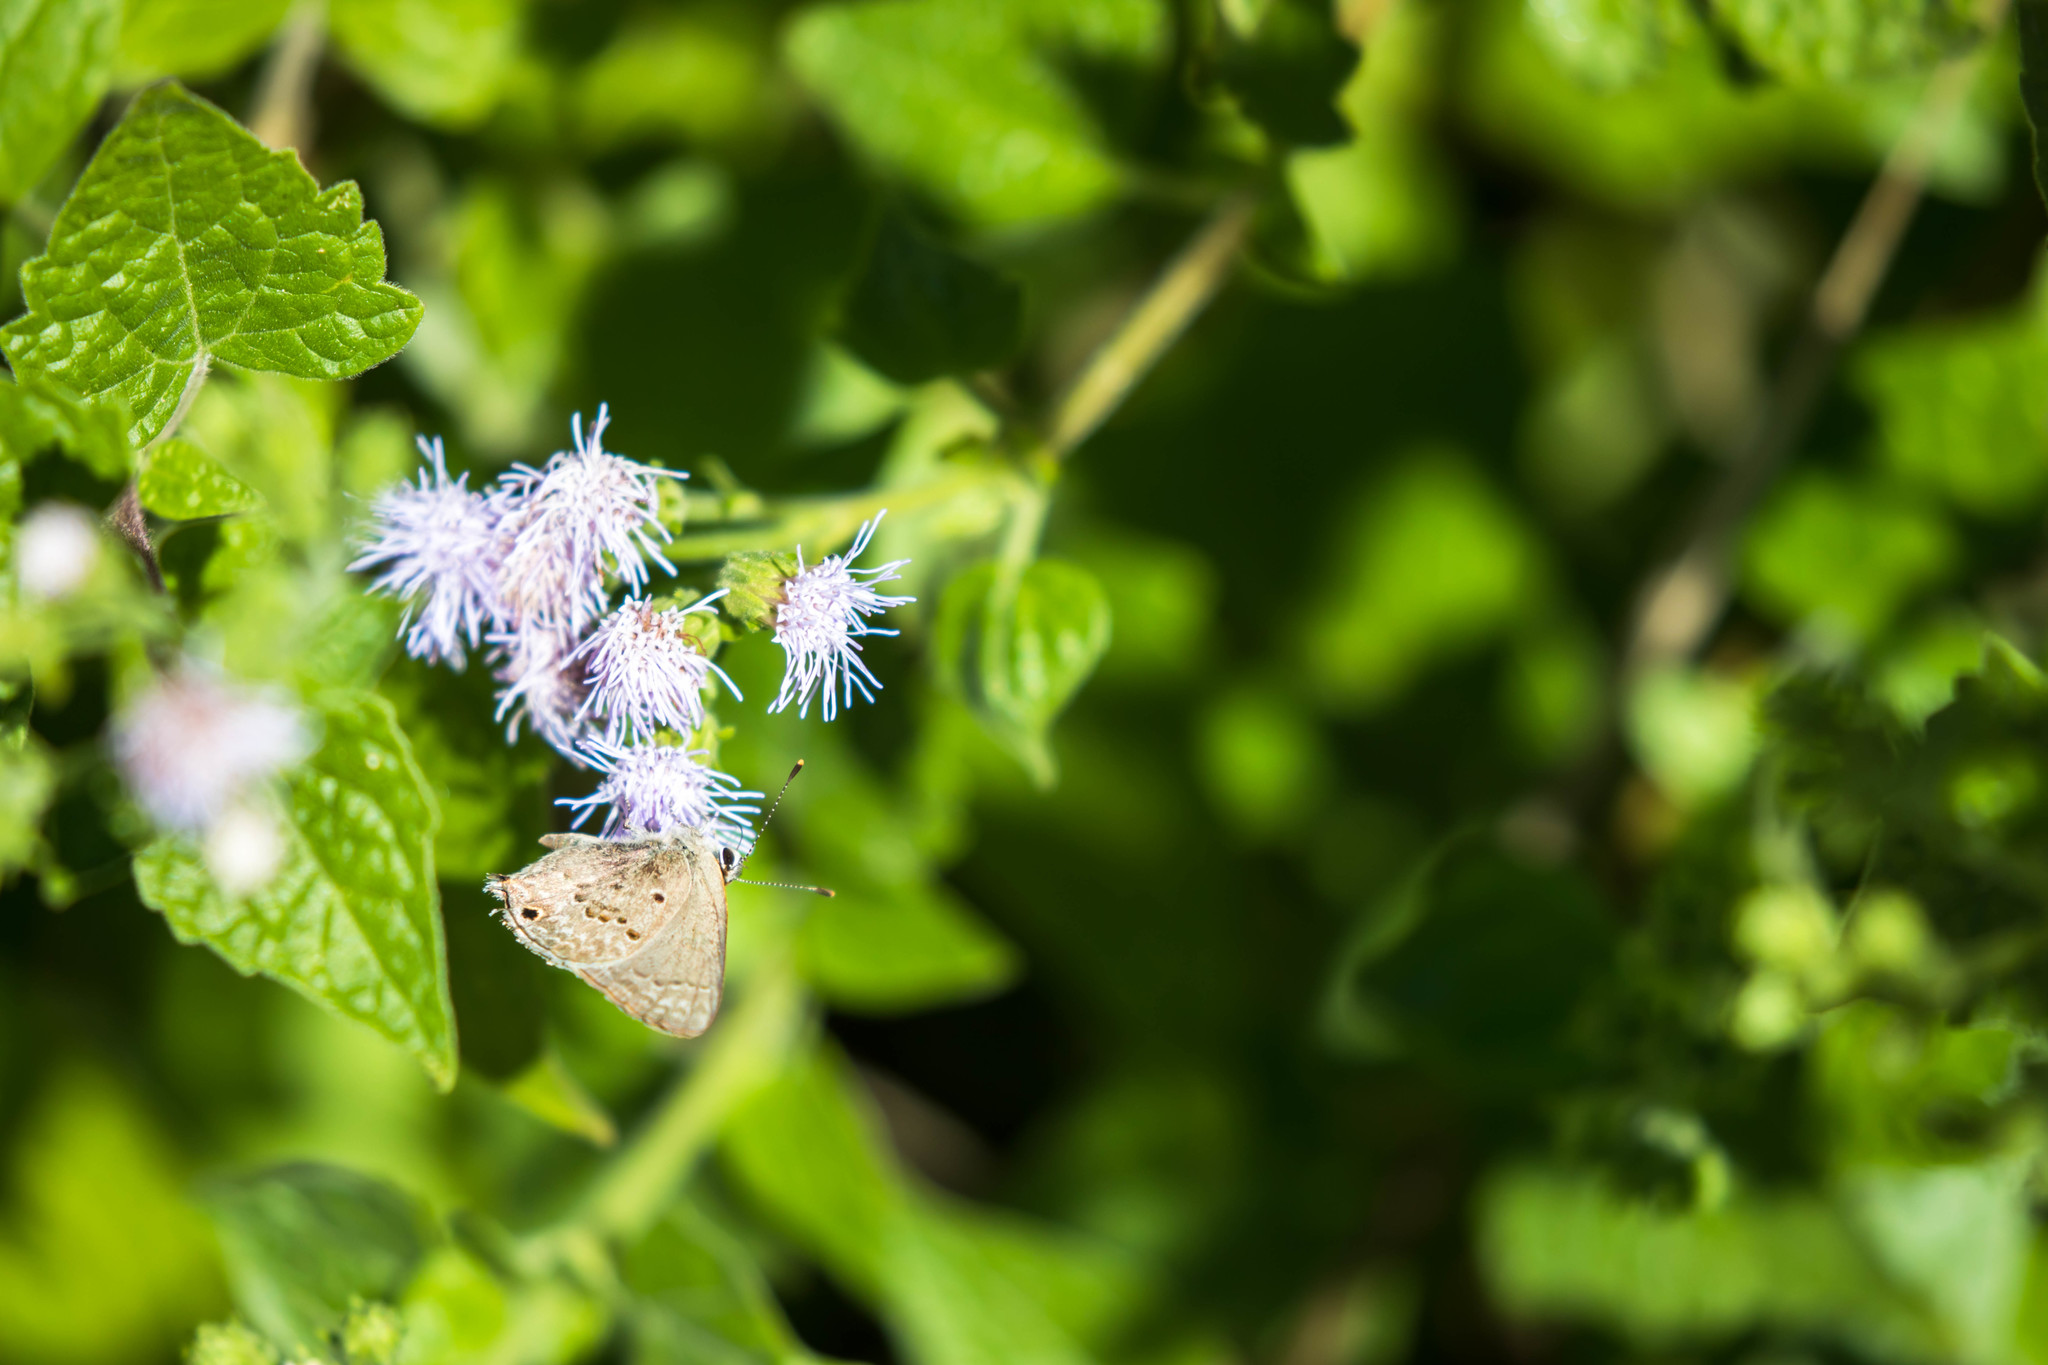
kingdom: Animalia
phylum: Arthropoda
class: Insecta
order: Lepidoptera
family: Lycaenidae
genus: Callicista
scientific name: Callicista columella
